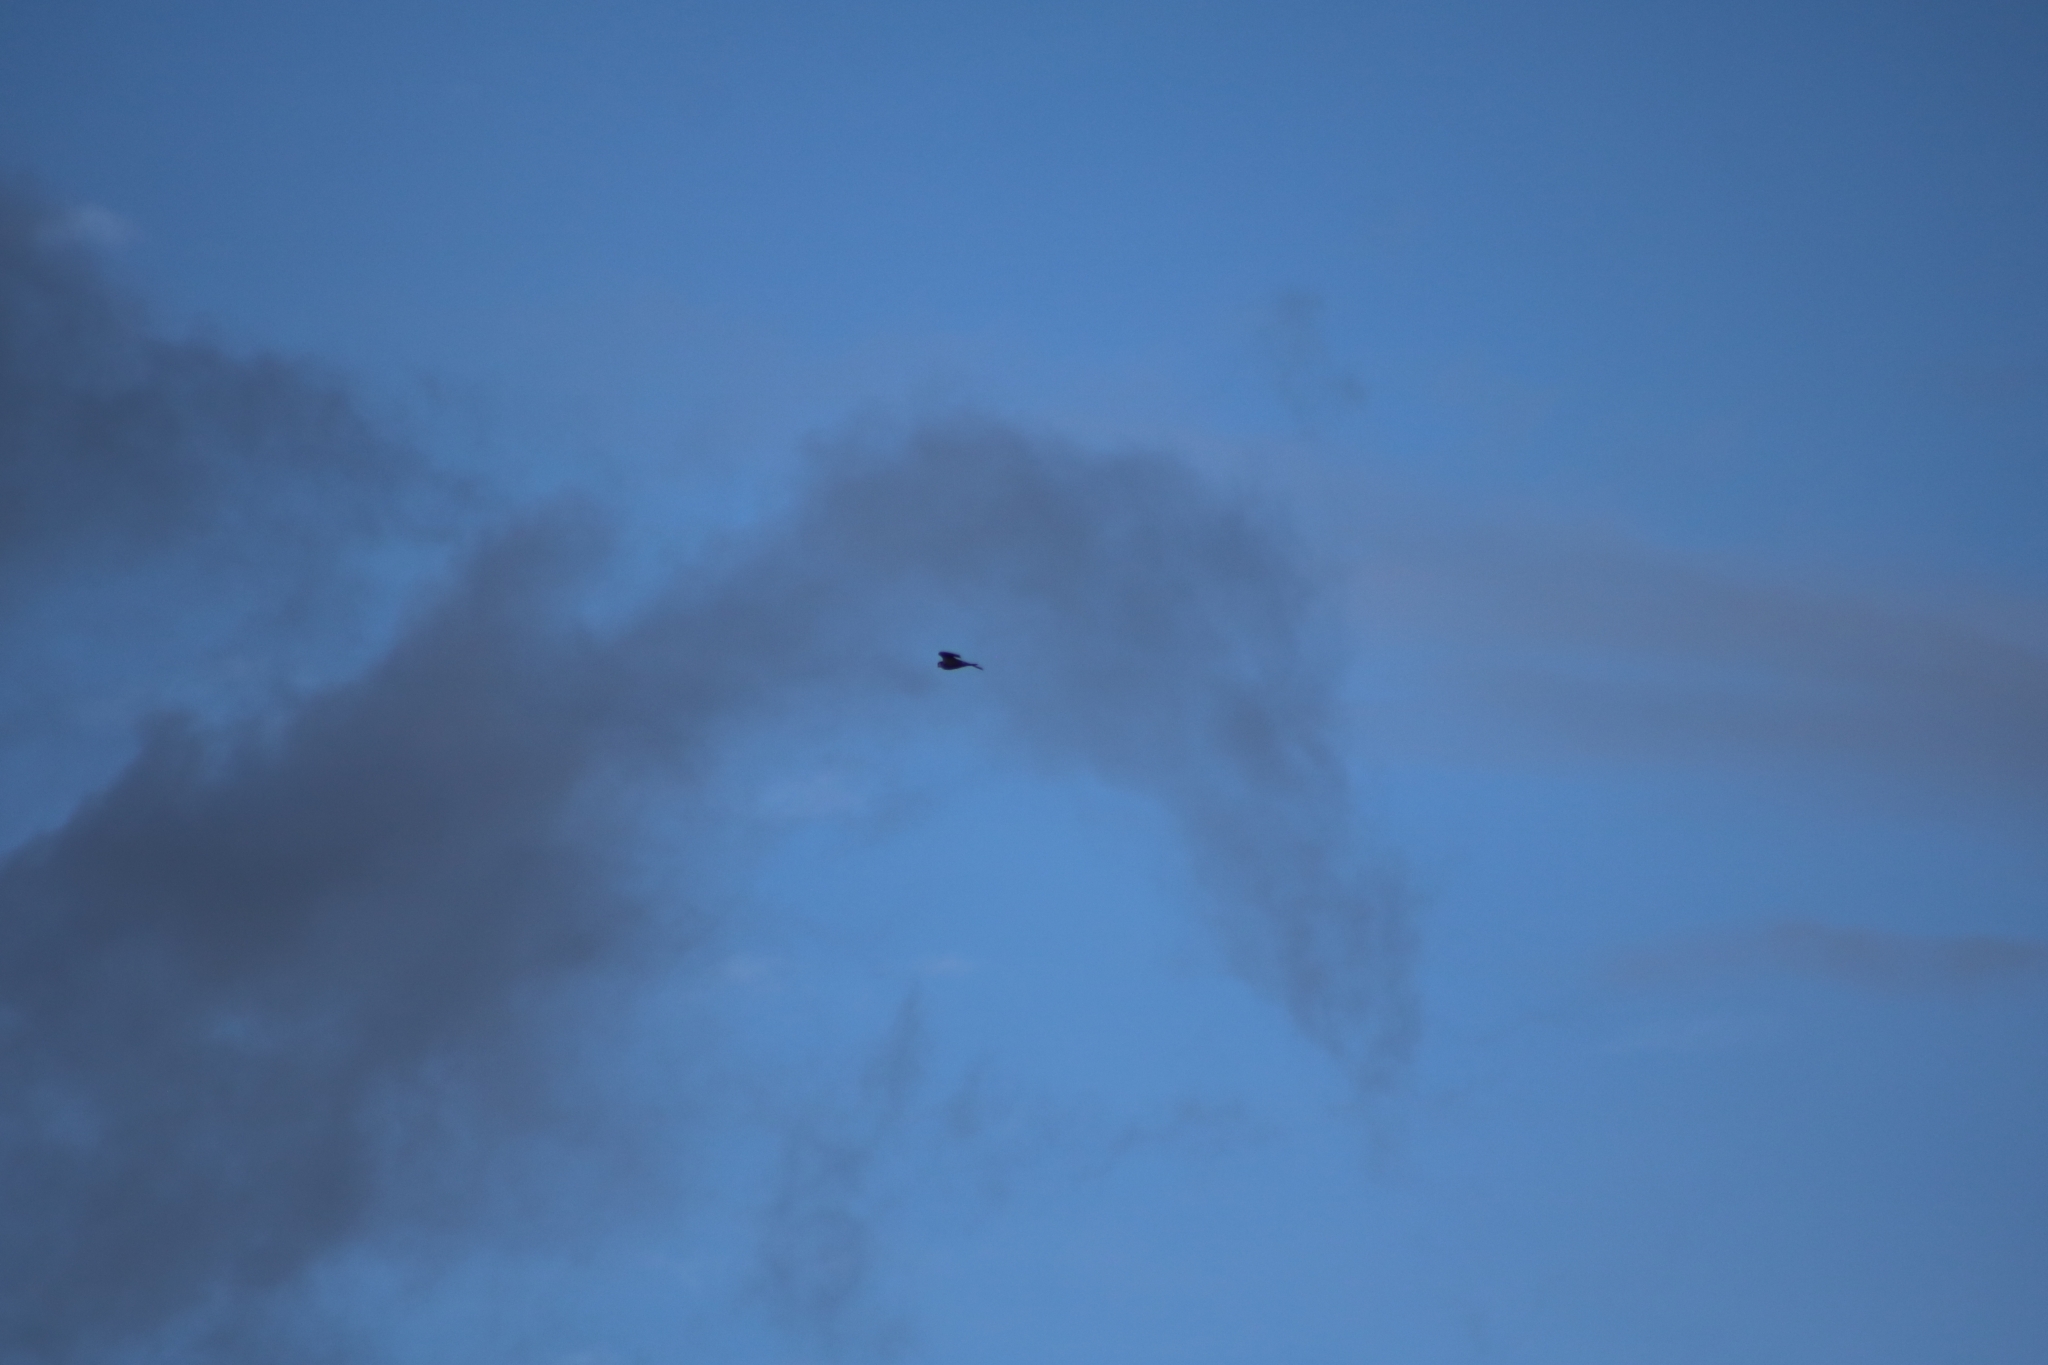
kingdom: Animalia
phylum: Chordata
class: Aves
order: Falconiformes
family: Falconidae
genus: Falco
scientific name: Falco subbuteo
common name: Eurasian hobby
